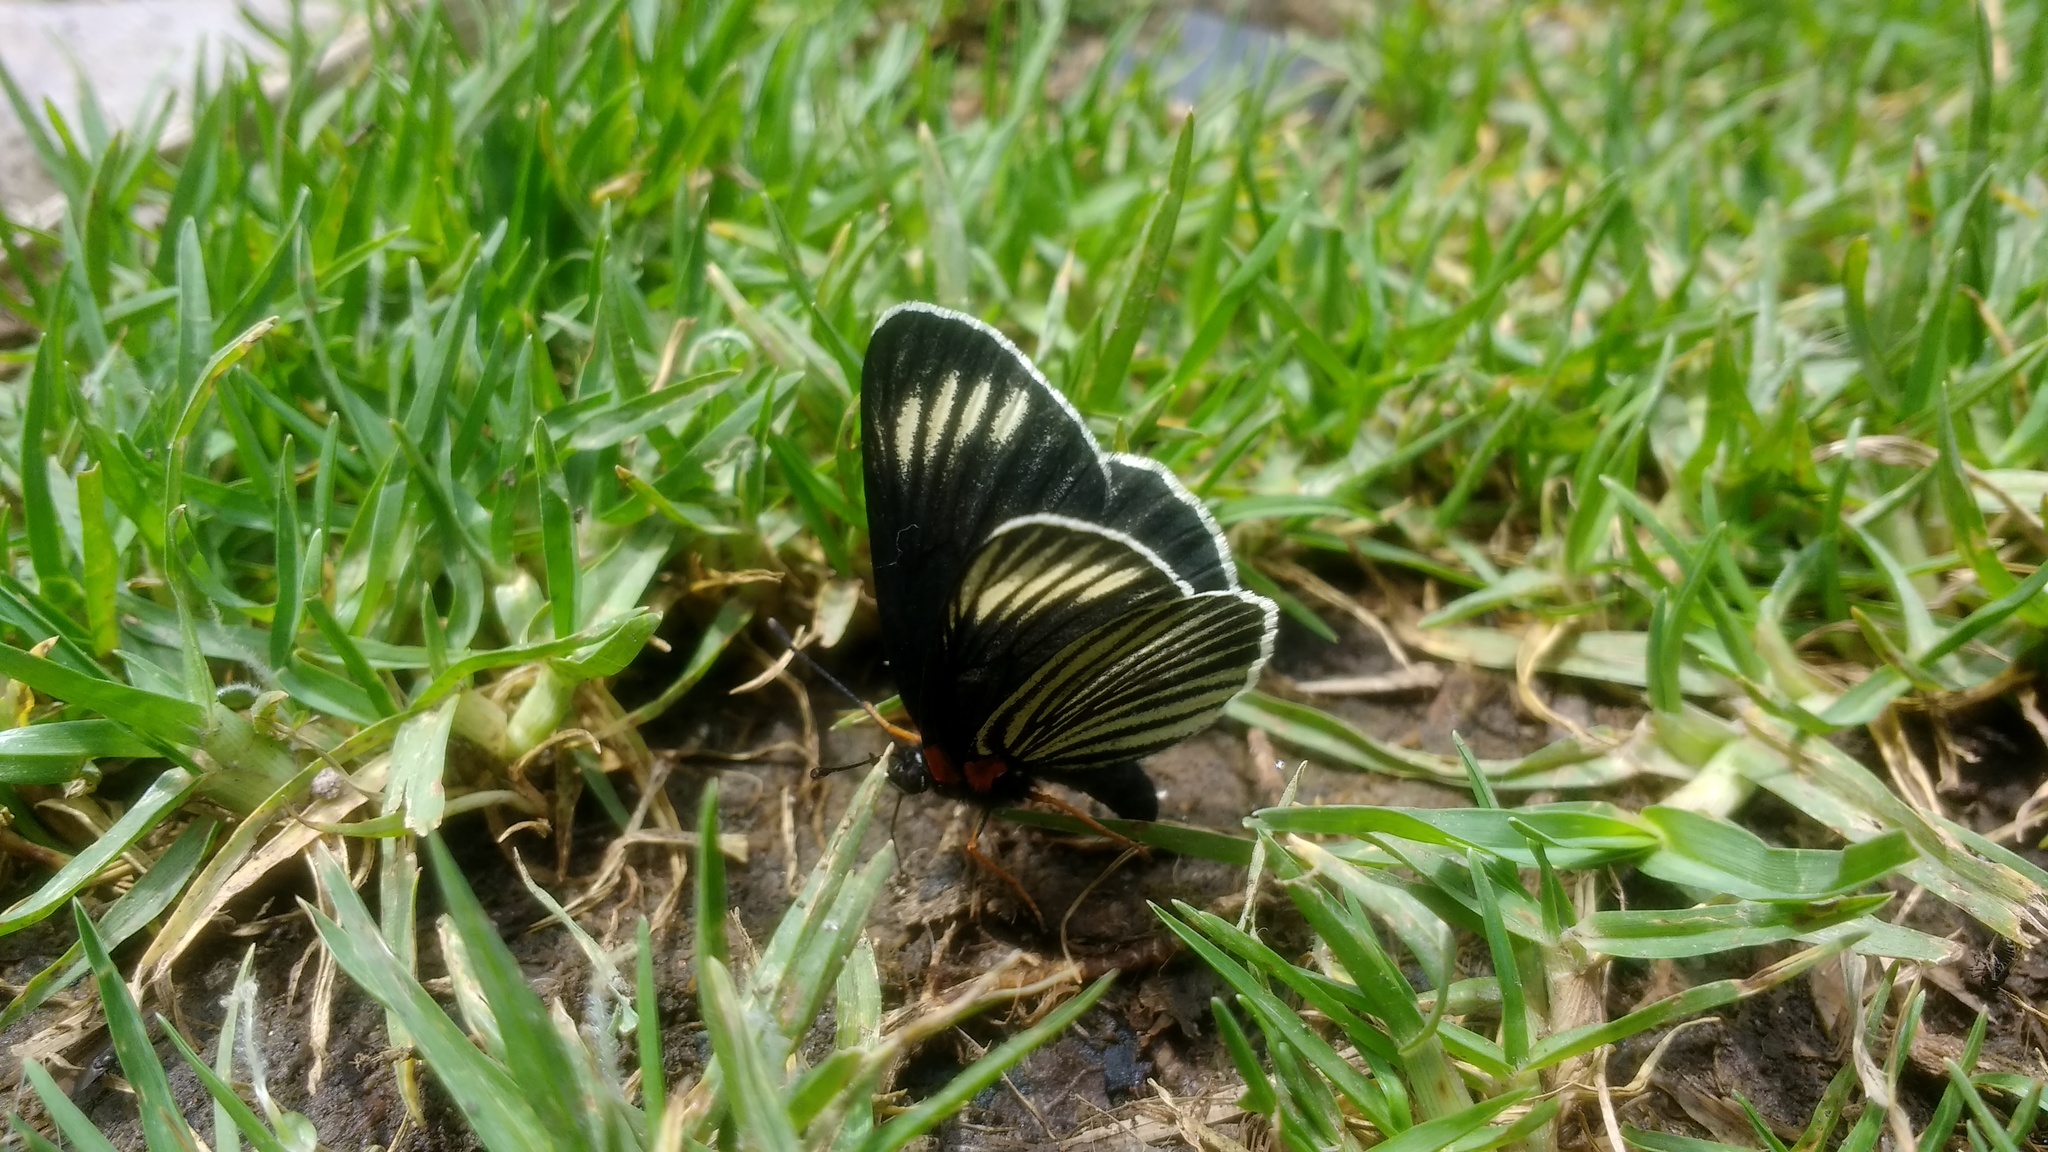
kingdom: Animalia
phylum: Arthropoda
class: Insecta
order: Lepidoptera
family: Nymphalidae
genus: Chlosyne
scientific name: Chlosyne ehrenbergii
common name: White-rayed patch
